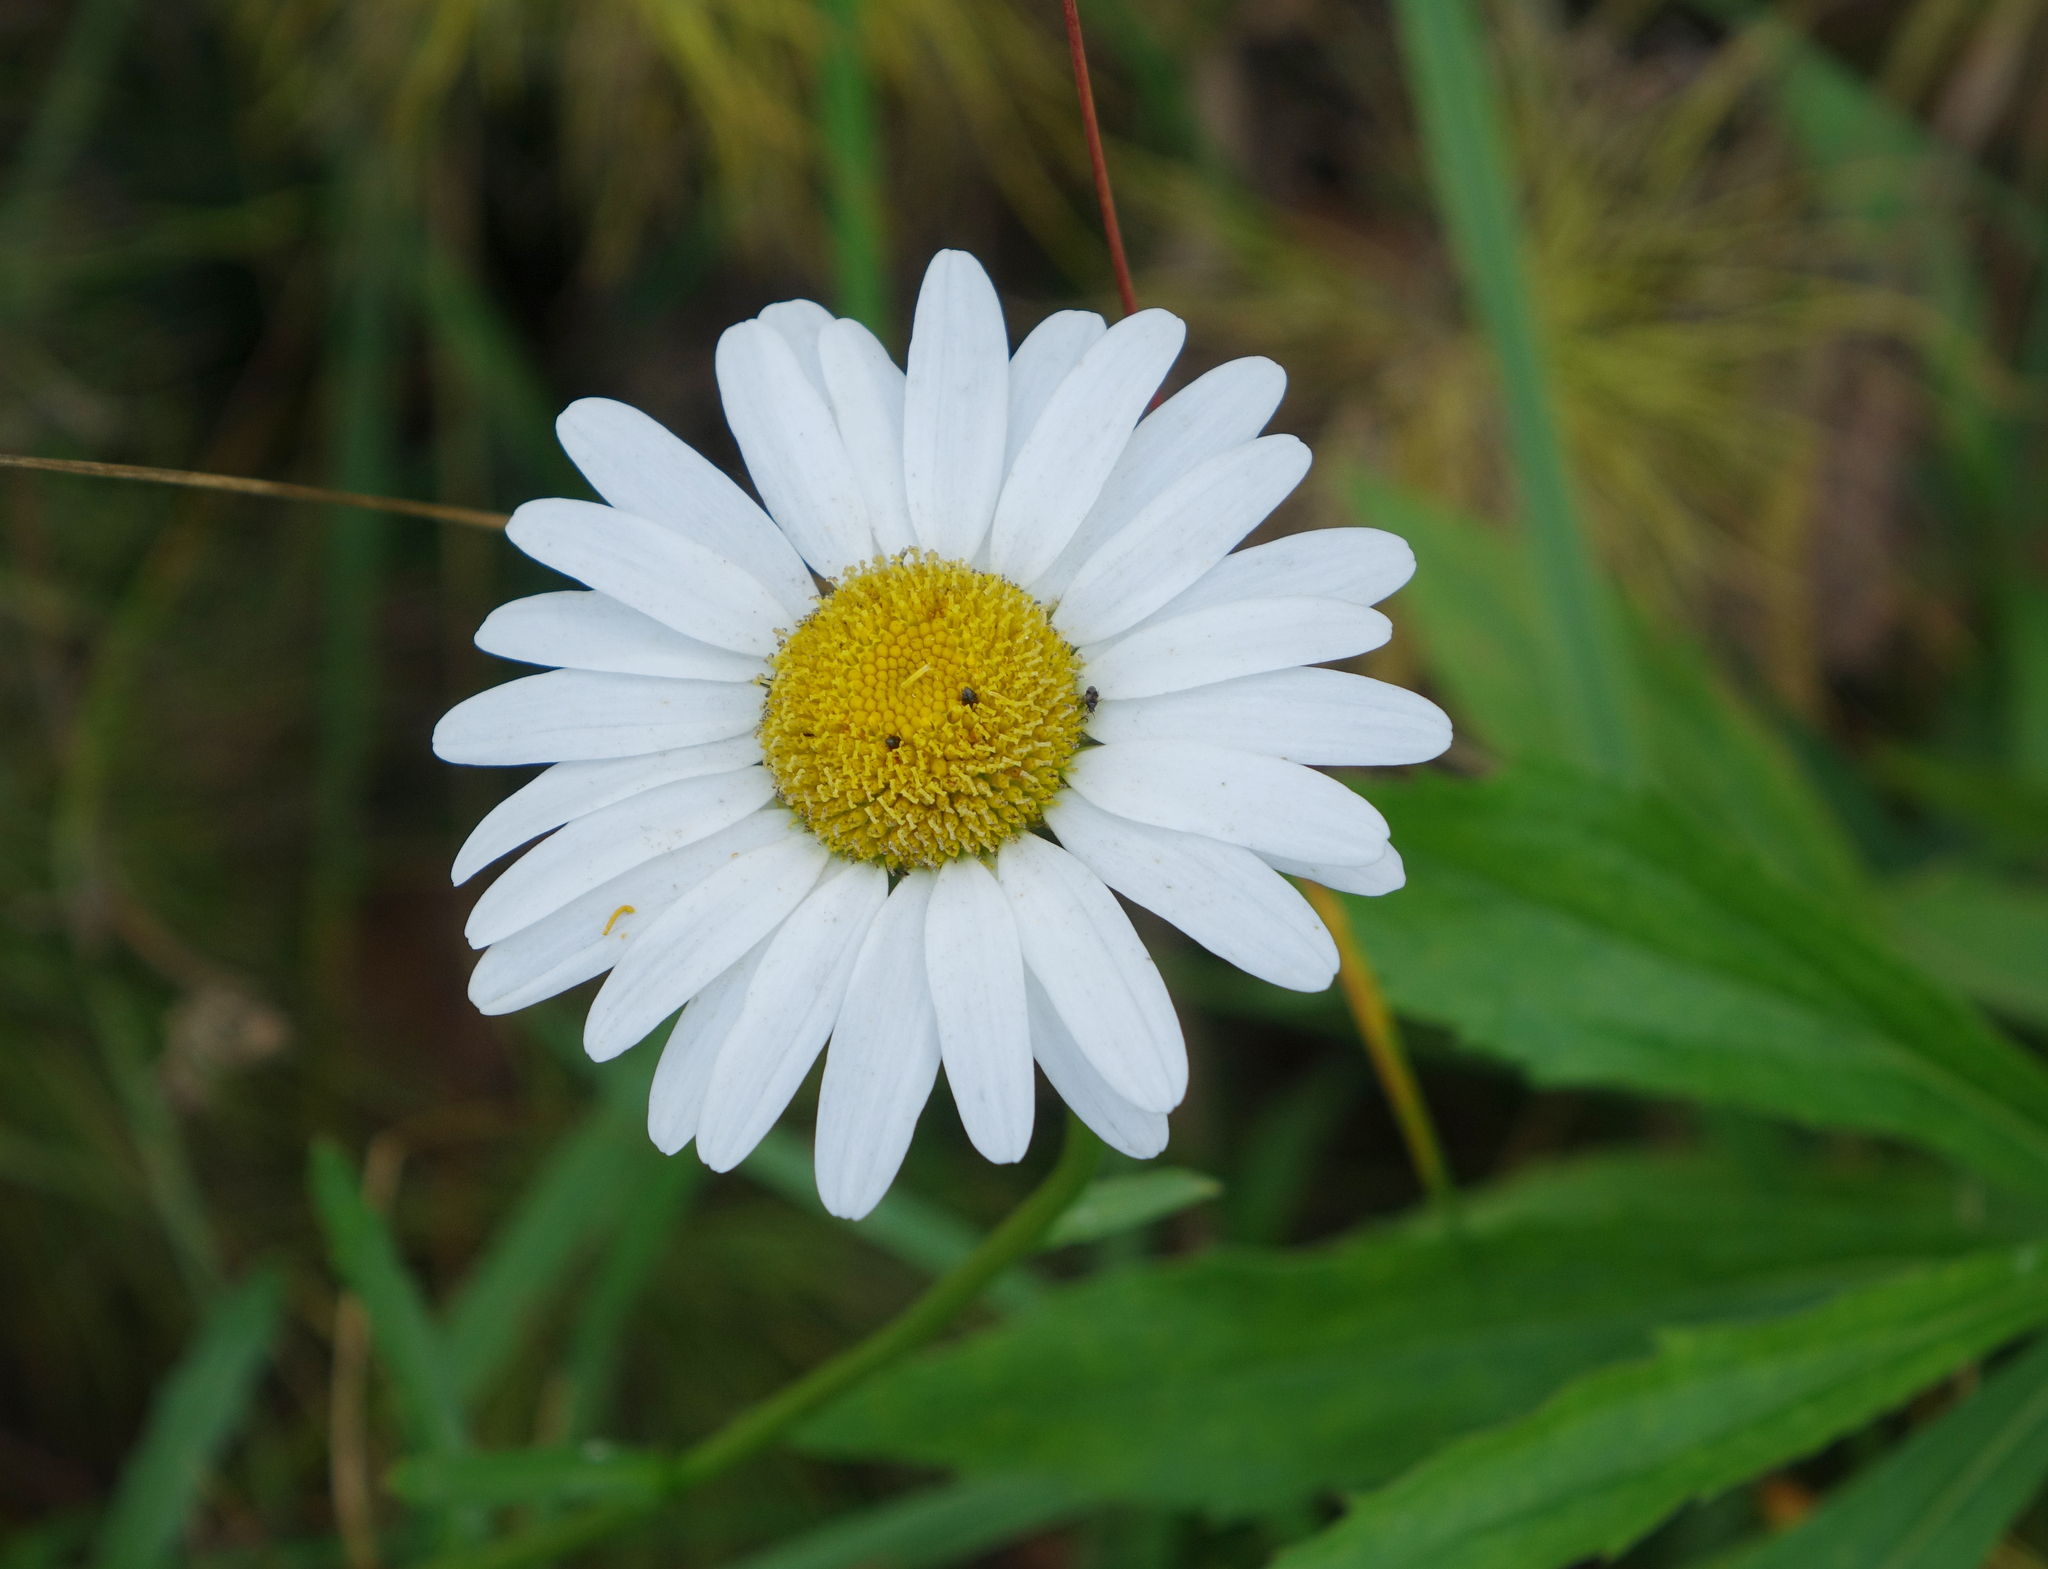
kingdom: Plantae
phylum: Tracheophyta
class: Magnoliopsida
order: Asterales
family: Asteraceae
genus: Leucanthemum
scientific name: Leucanthemum ircutianum
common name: Daisy
